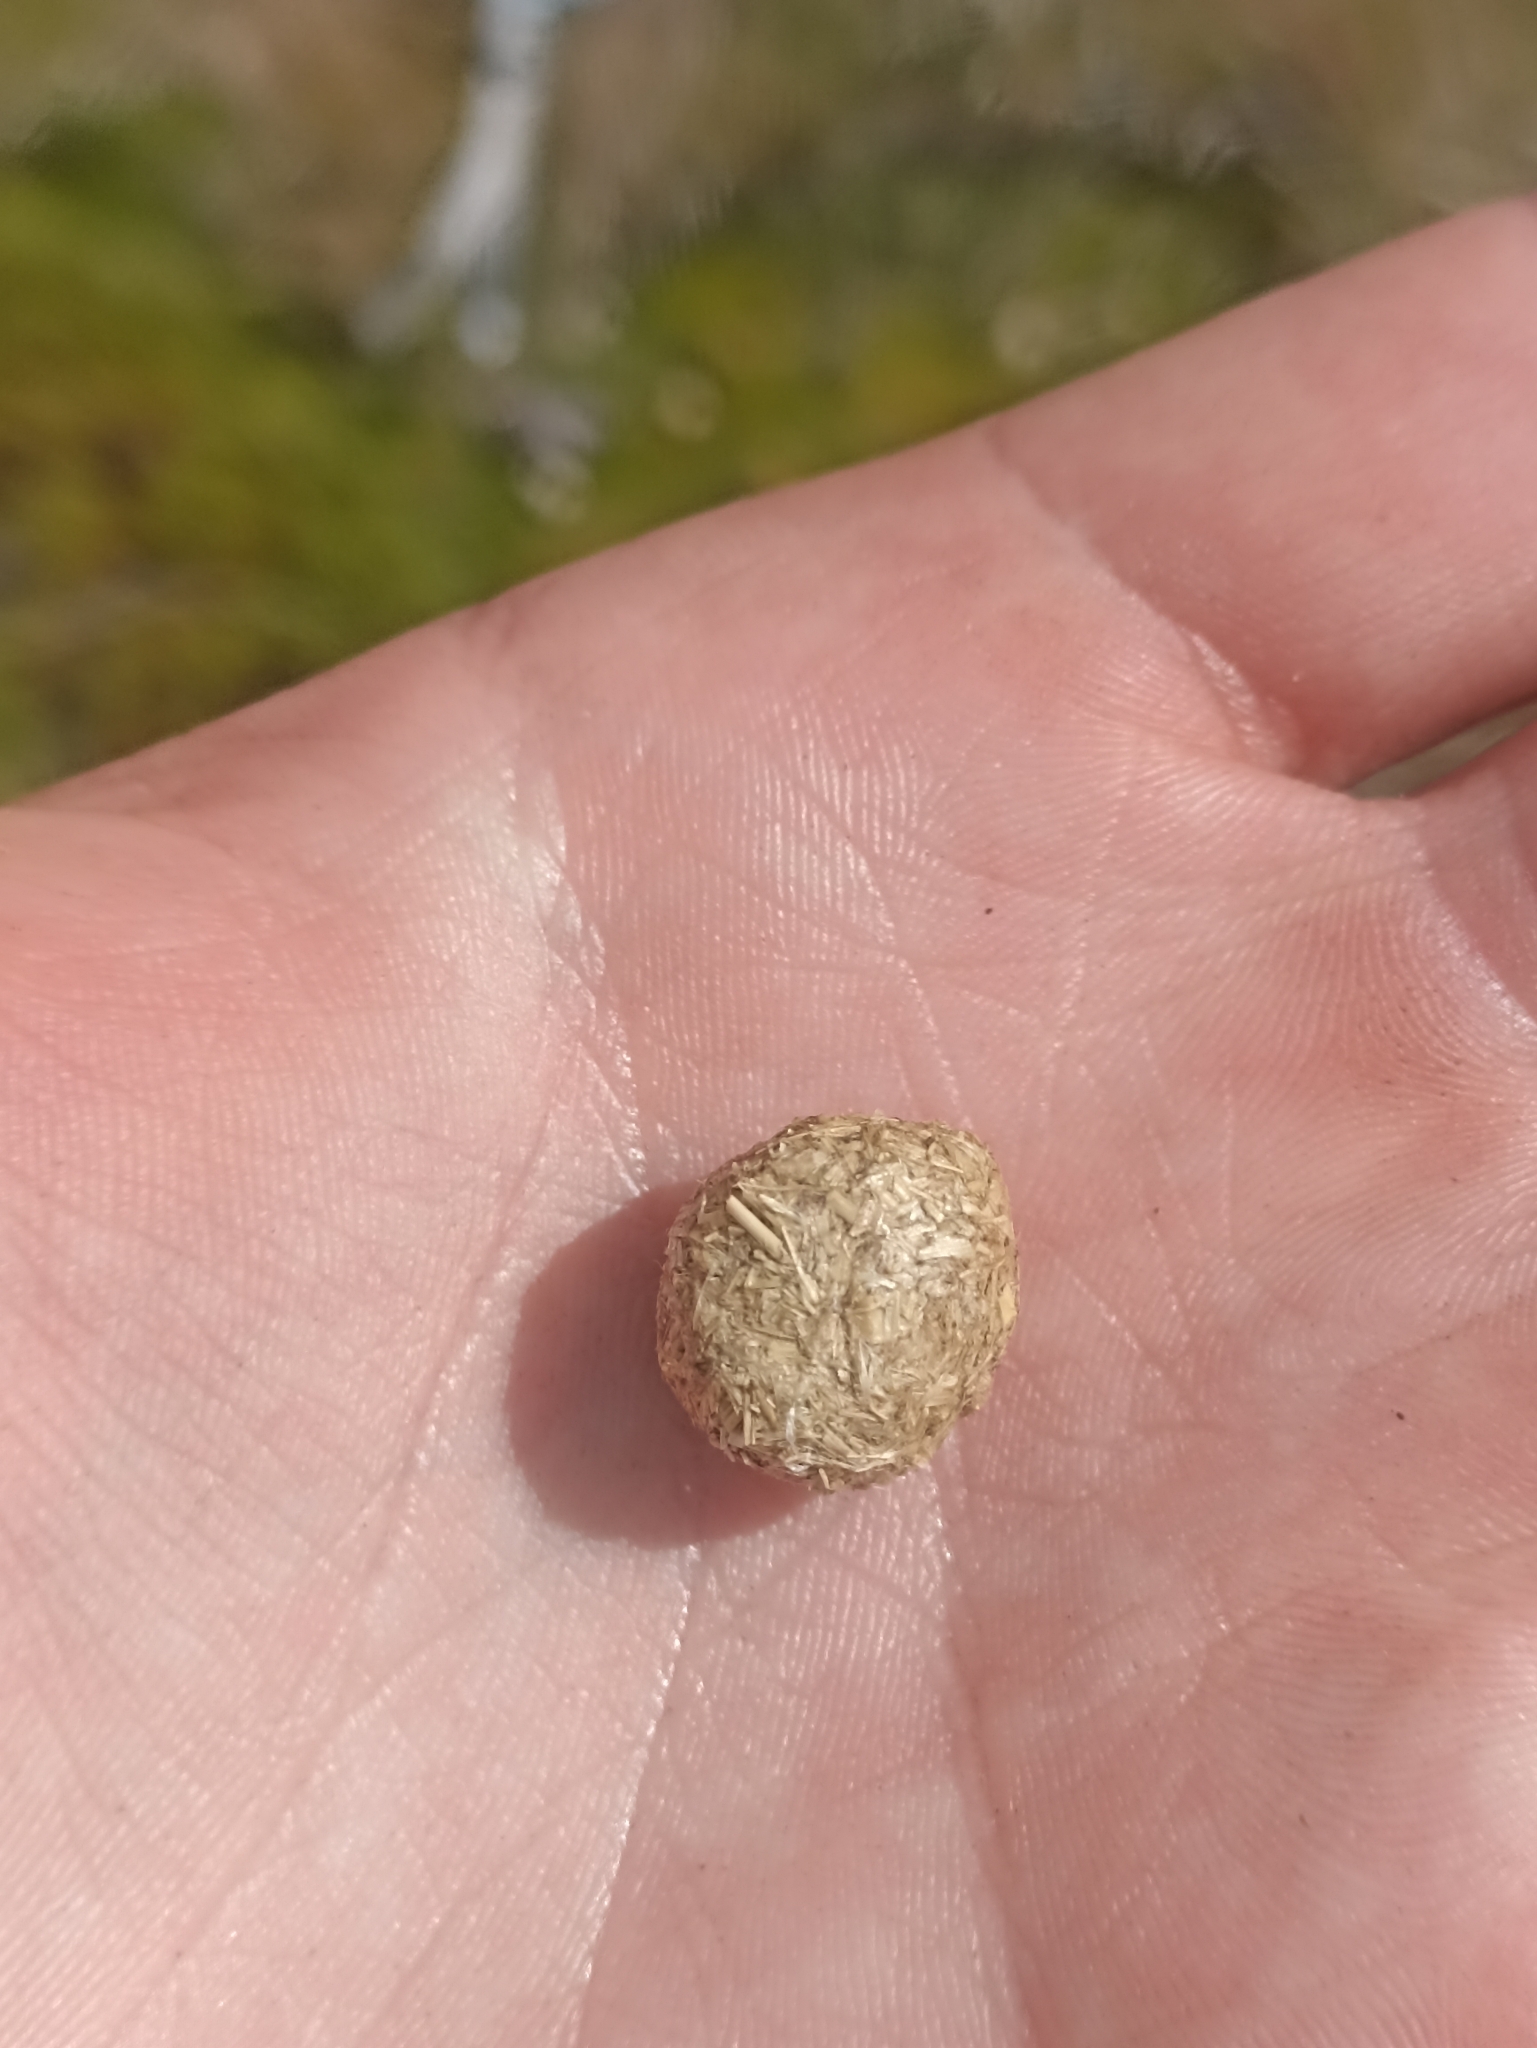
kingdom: Animalia
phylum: Chordata
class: Mammalia
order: Lagomorpha
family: Leporidae
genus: Lepus
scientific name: Lepus europaeus
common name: European hare
